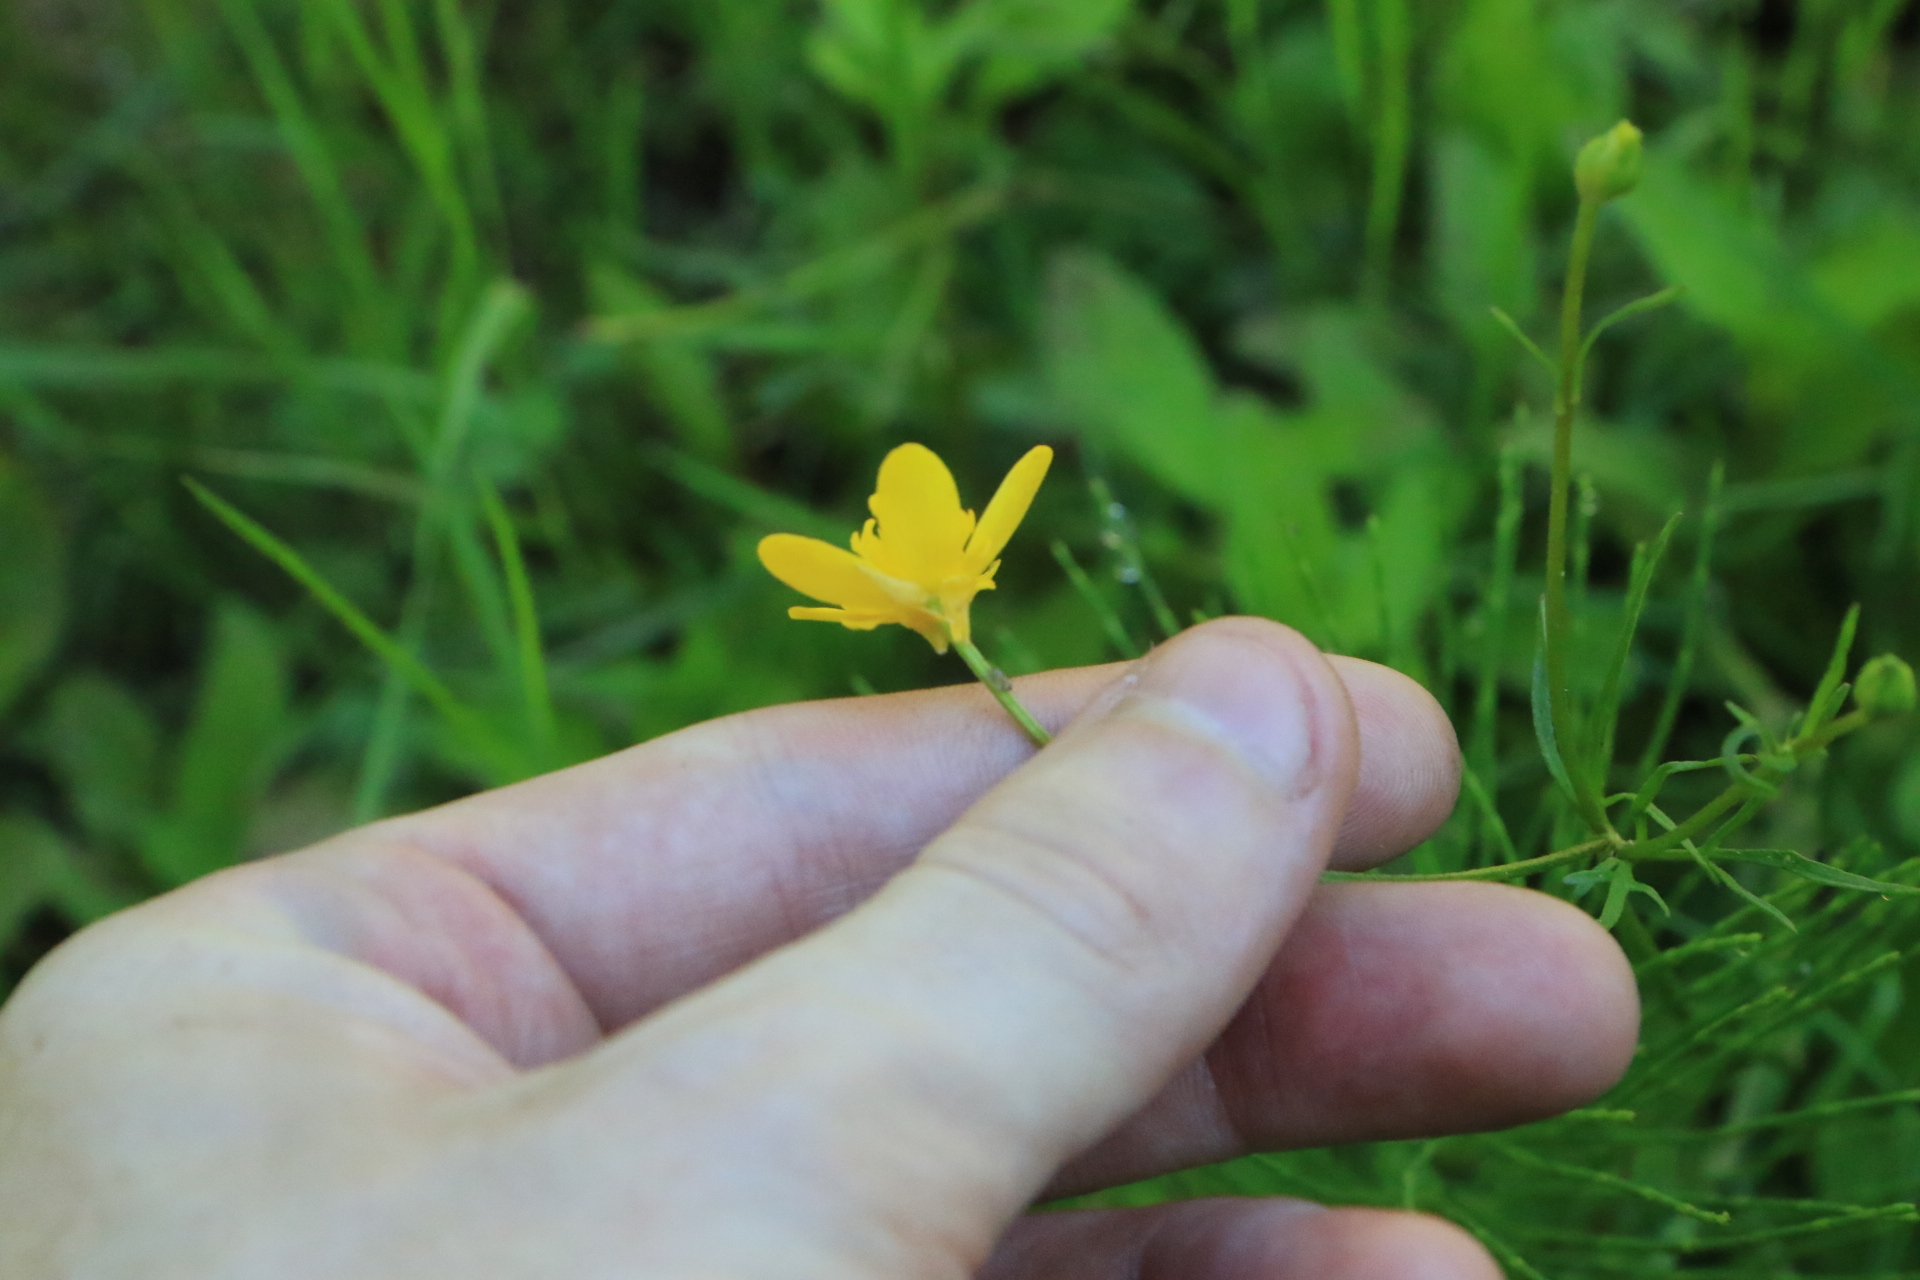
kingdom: Plantae
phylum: Tracheophyta
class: Magnoliopsida
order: Ranunculales
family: Ranunculaceae
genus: Ranunculus
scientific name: Ranunculus orthorhynchus
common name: Straight-beak buttercup
